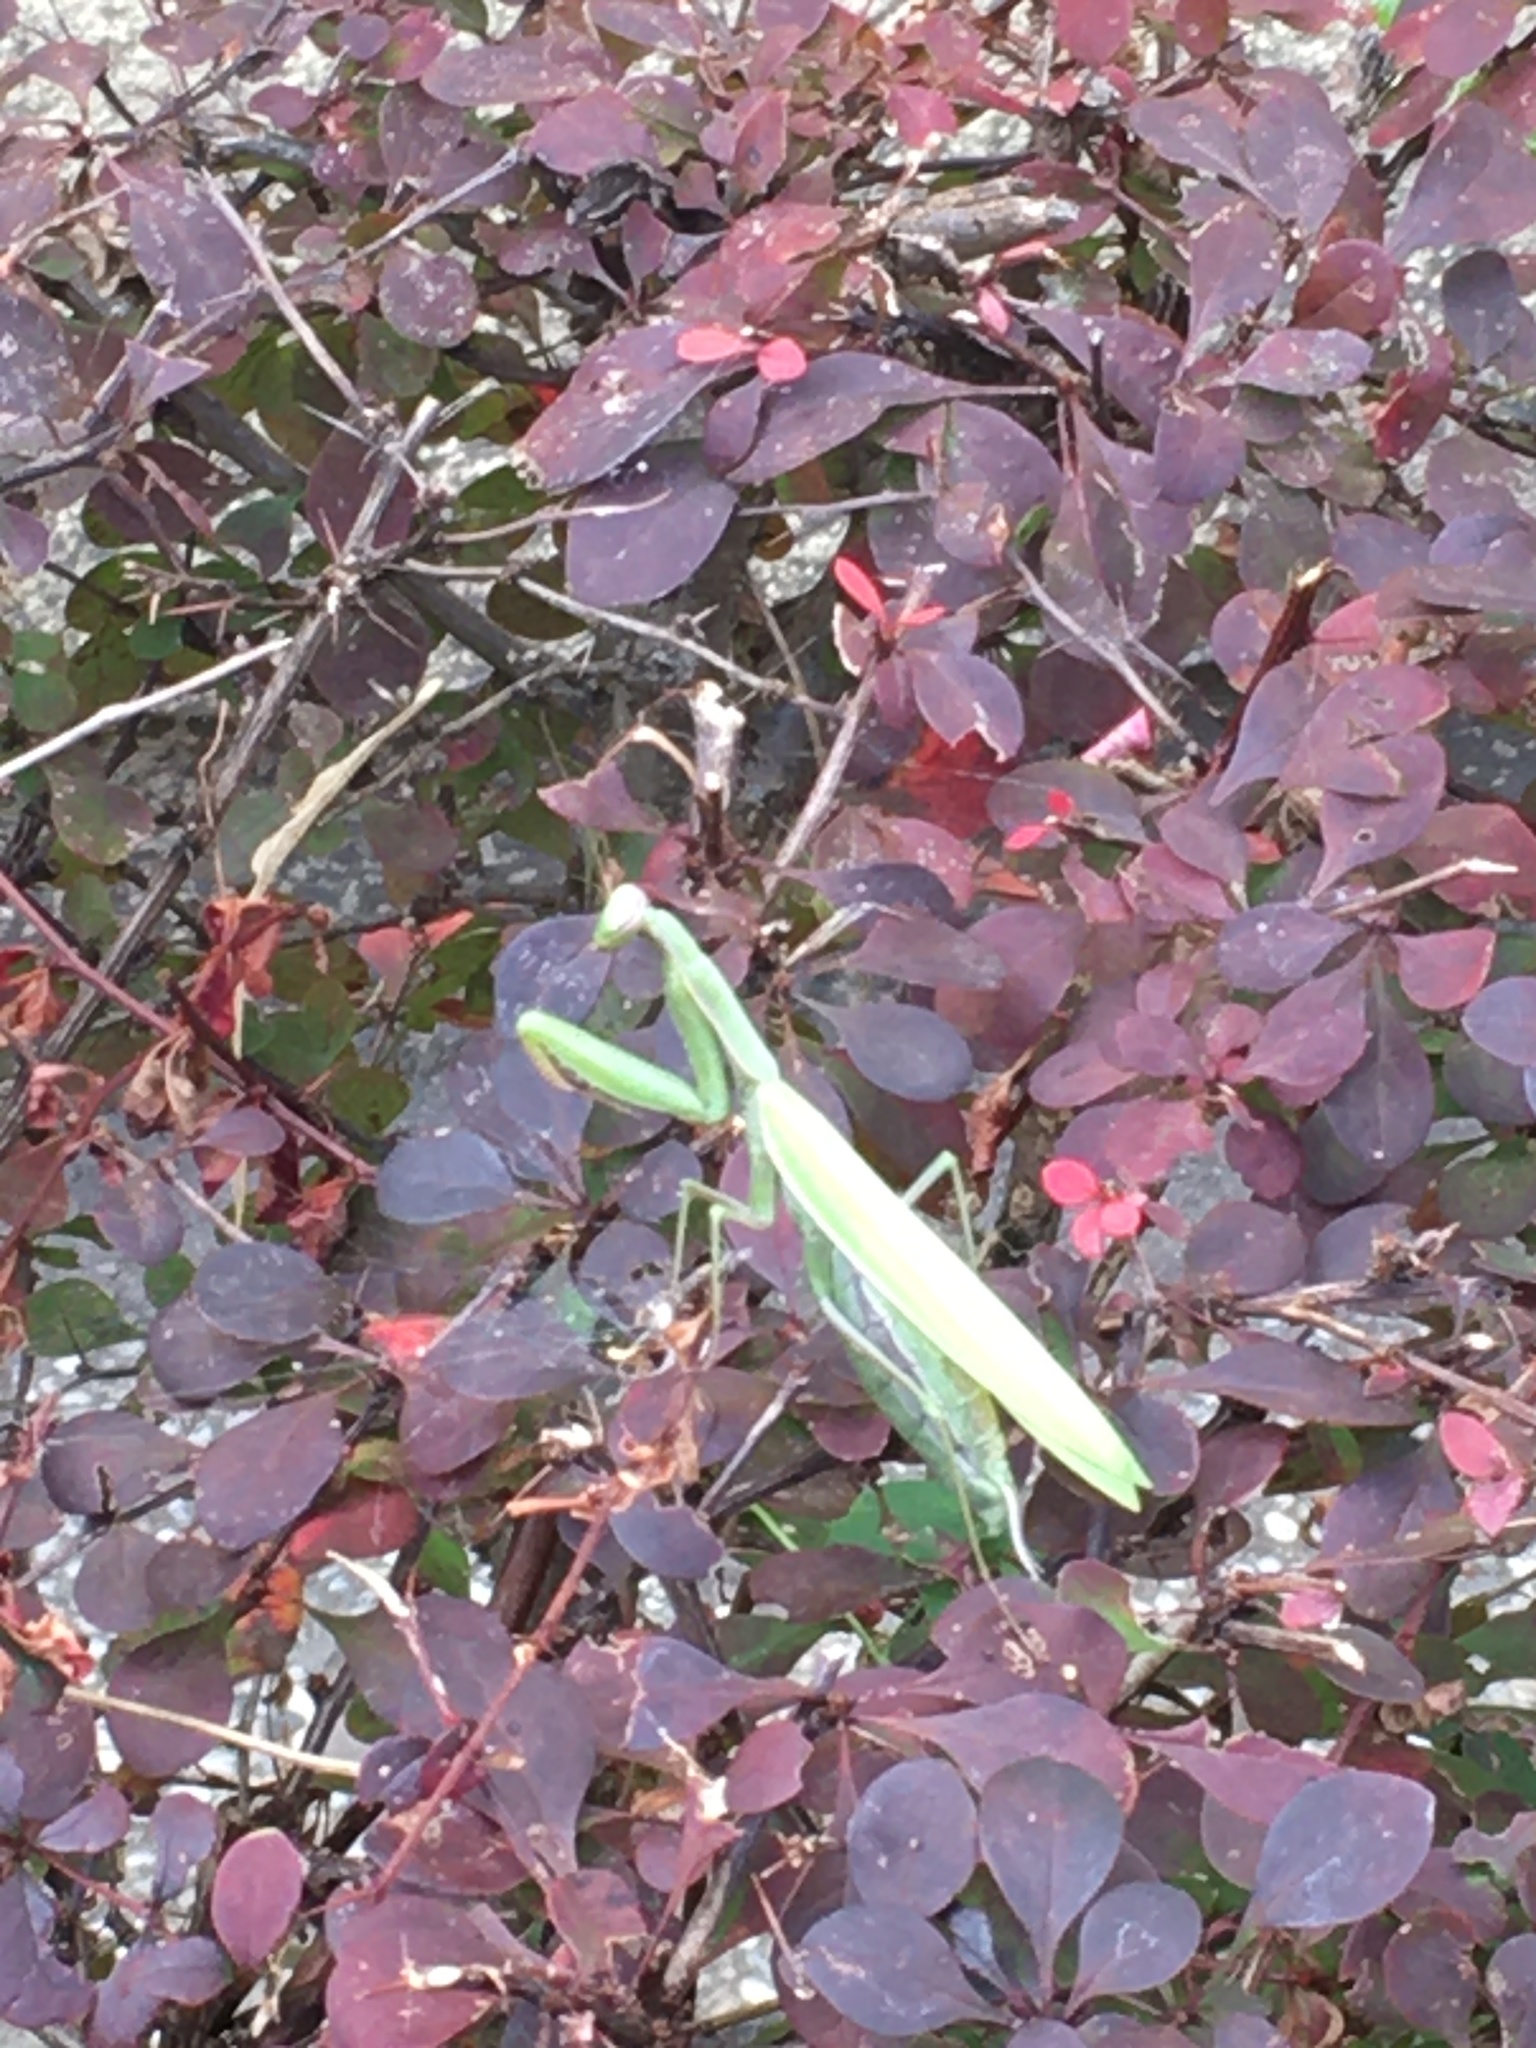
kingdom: Animalia
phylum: Arthropoda
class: Insecta
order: Mantodea
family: Mantidae
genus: Mantis
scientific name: Mantis religiosa
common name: Praying mantis
